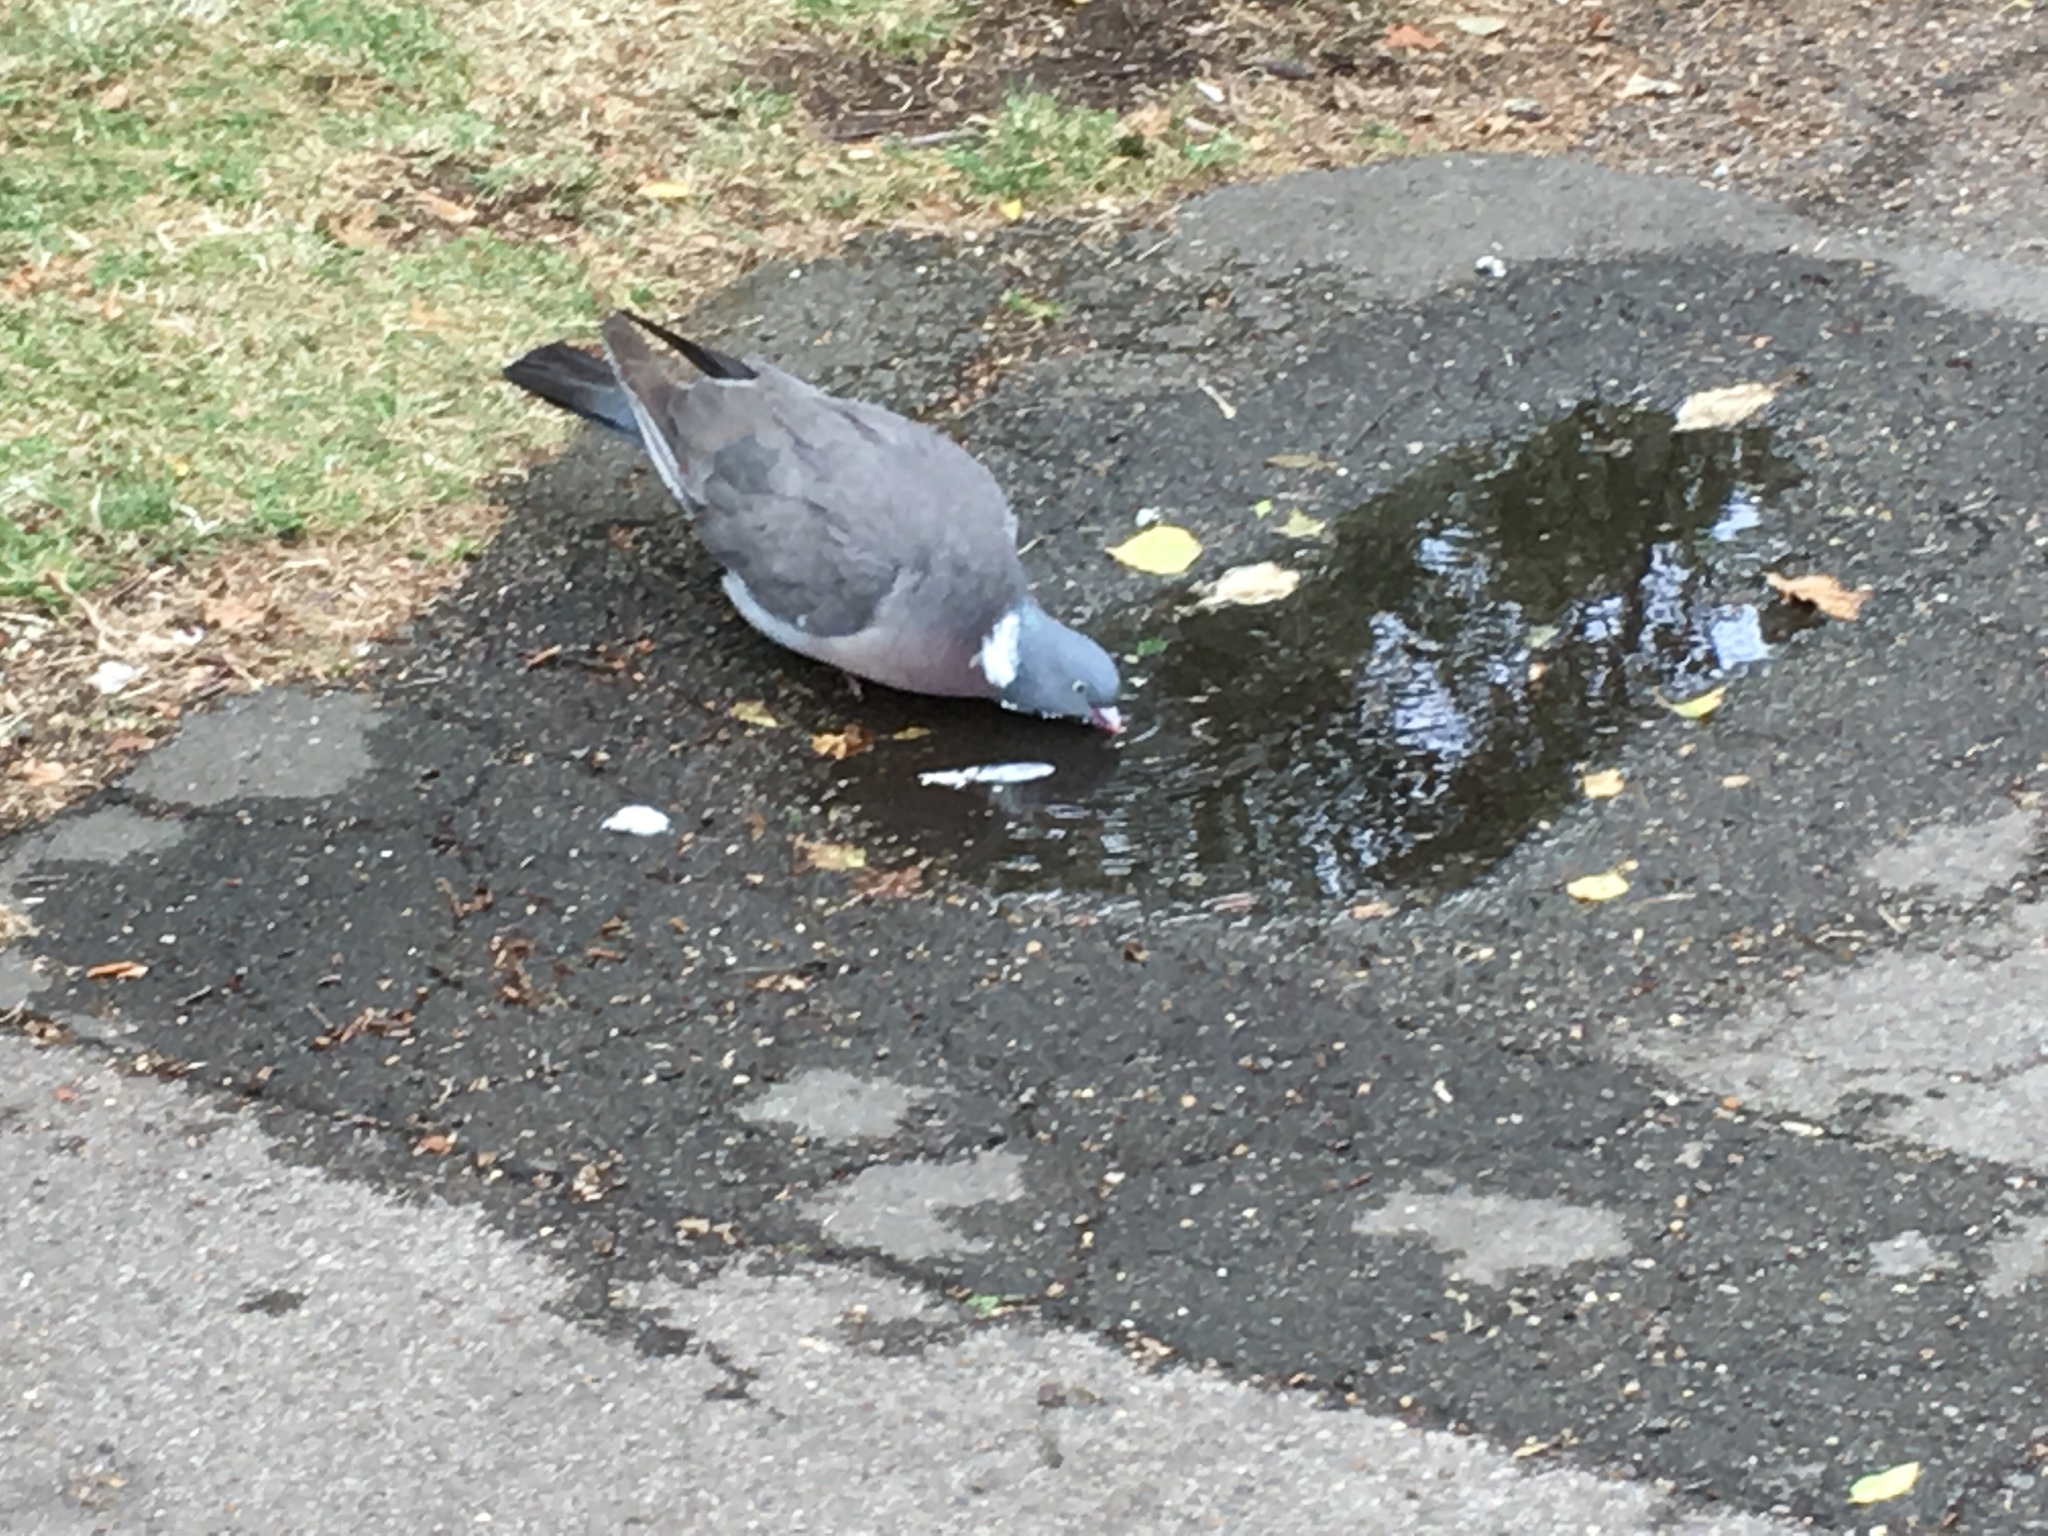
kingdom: Animalia
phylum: Chordata
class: Aves
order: Columbiformes
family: Columbidae
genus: Columba
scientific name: Columba palumbus
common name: Common wood pigeon
